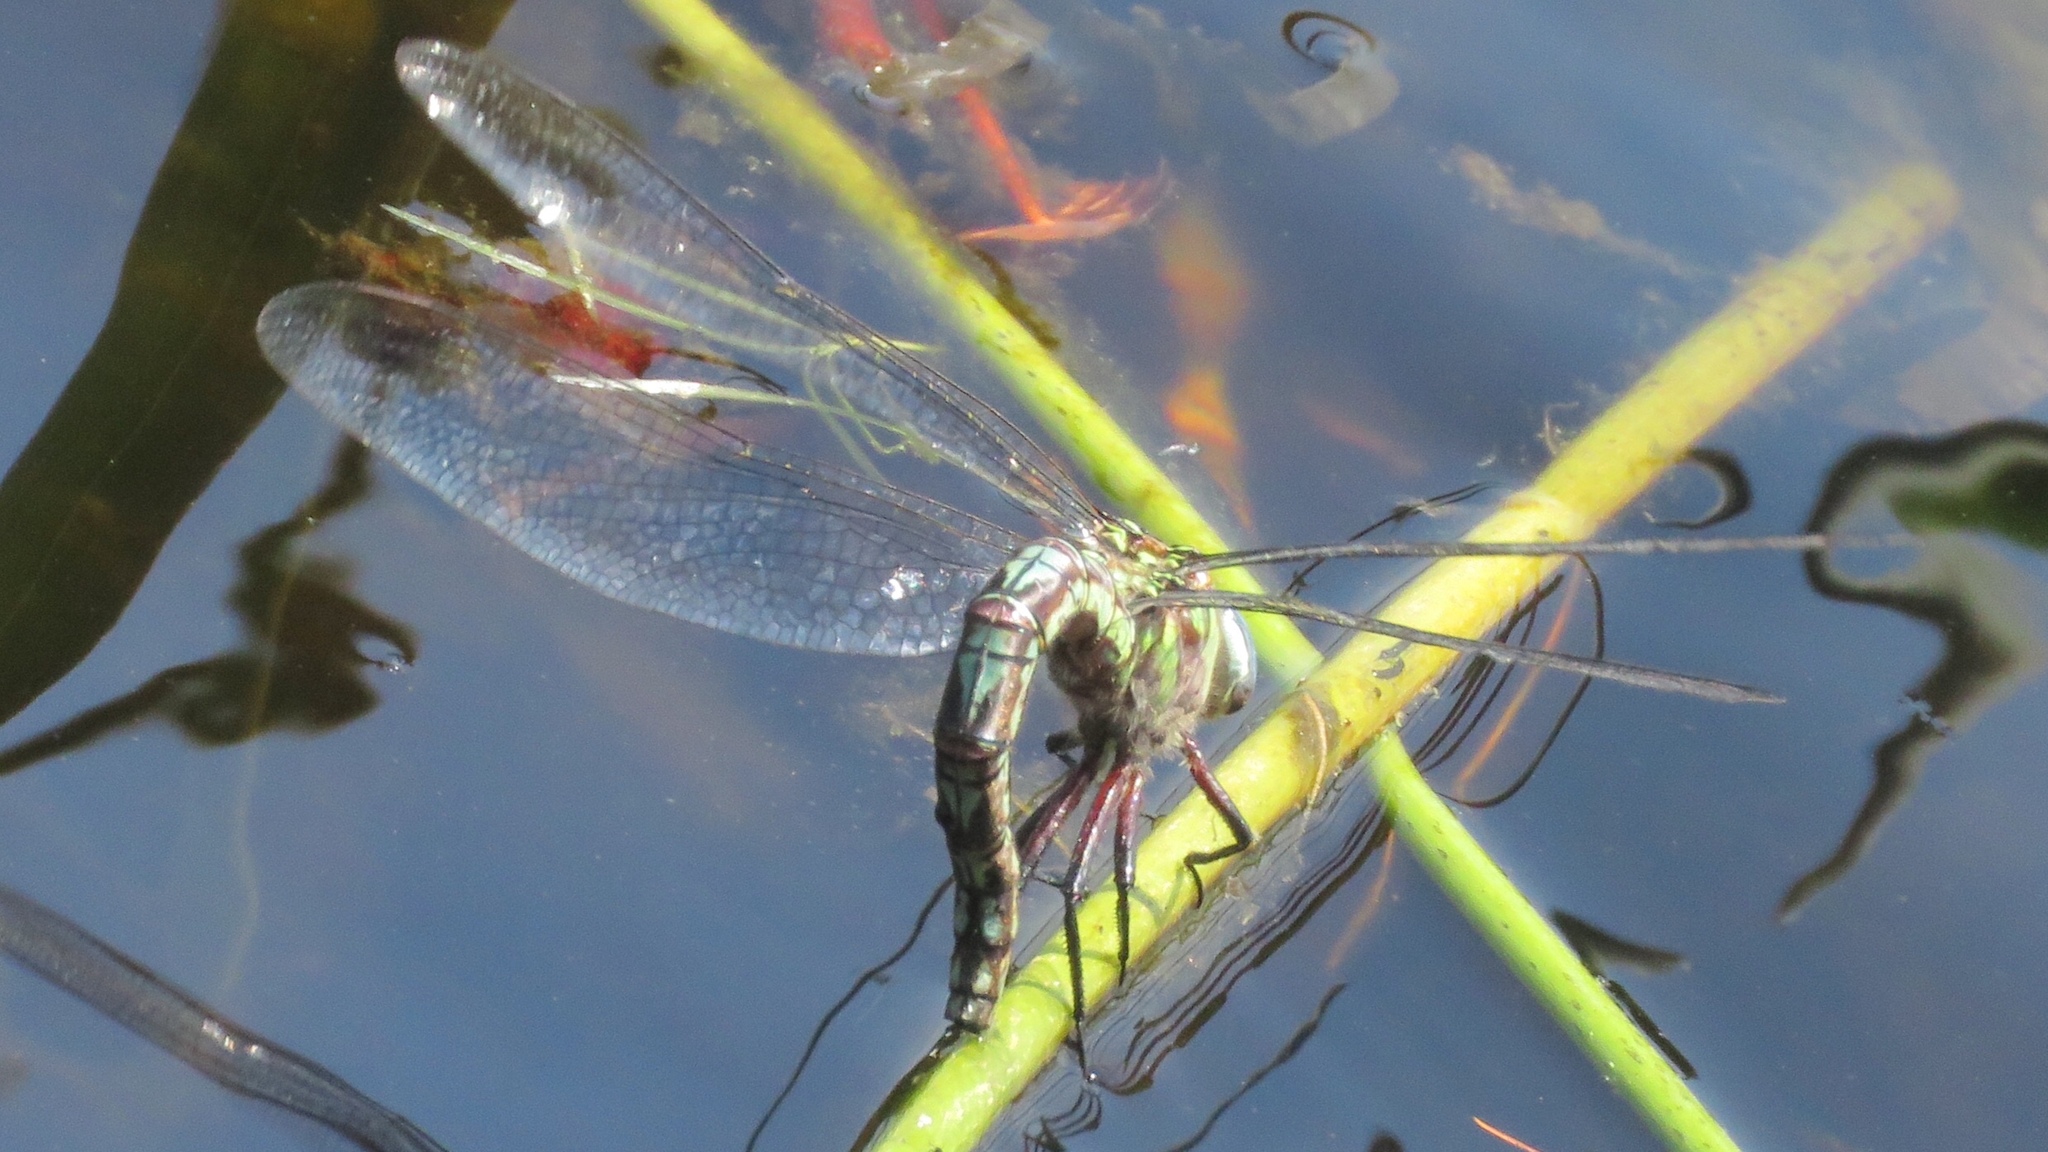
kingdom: Animalia
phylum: Arthropoda
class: Insecta
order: Odonata
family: Aeshnidae
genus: Nasiaeschna
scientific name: Nasiaeschna pentacantha
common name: Cyrano darner
